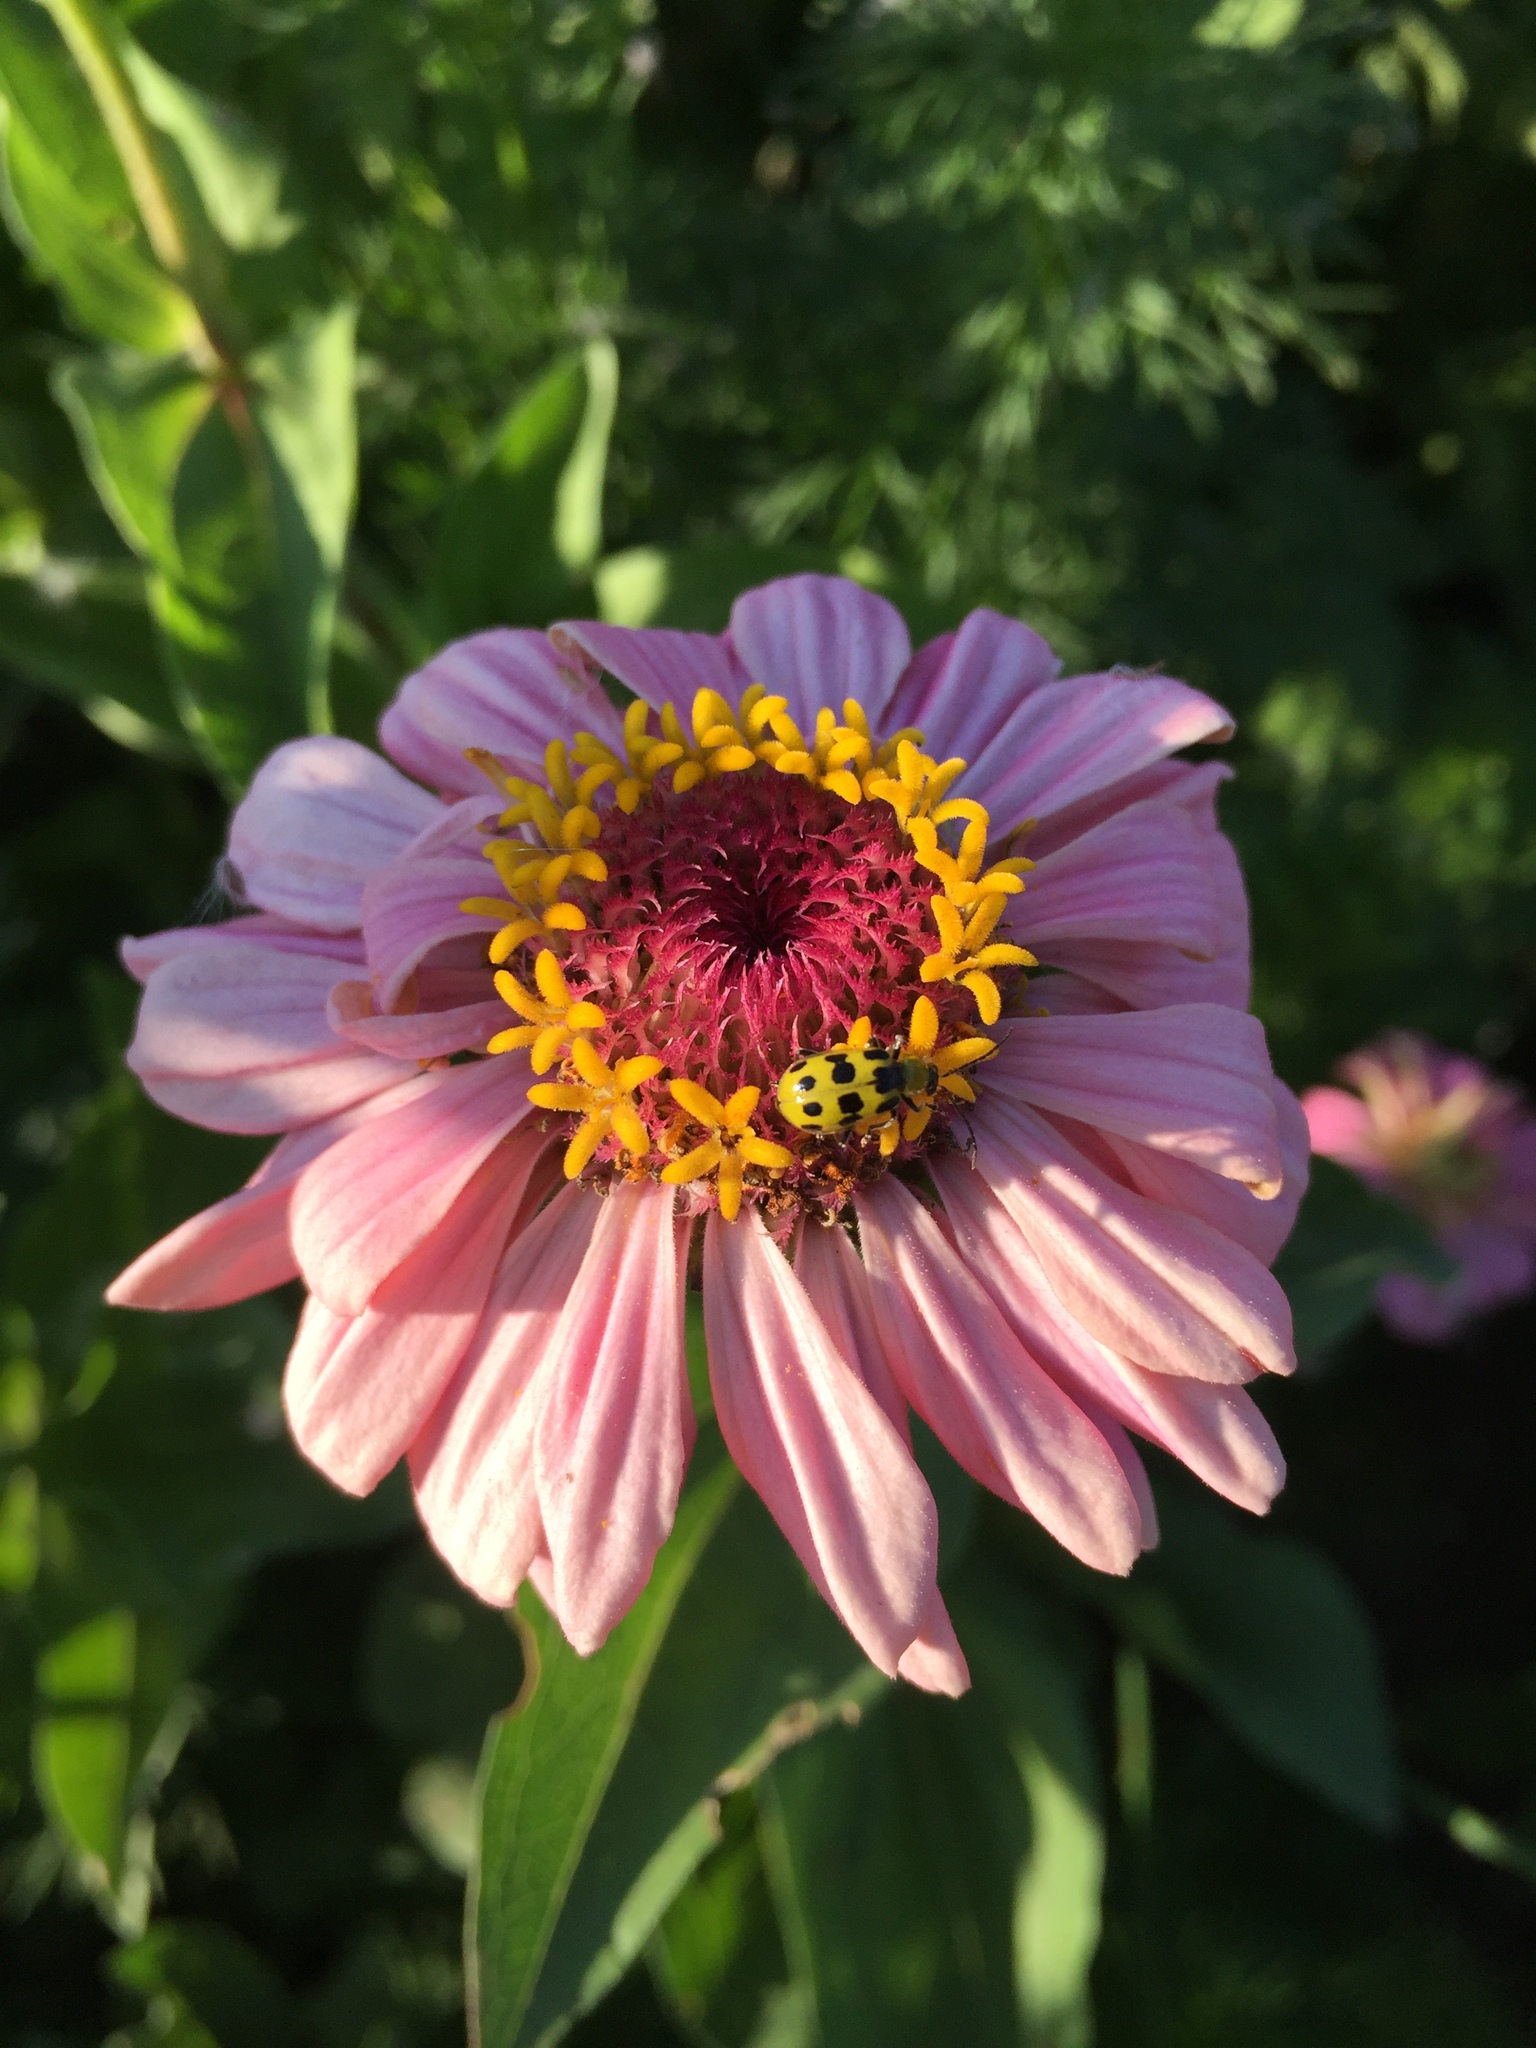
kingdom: Animalia
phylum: Arthropoda
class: Insecta
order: Coleoptera
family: Chrysomelidae
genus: Diabrotica
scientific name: Diabrotica undecimpunctata
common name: Spotted cucumber beetle
